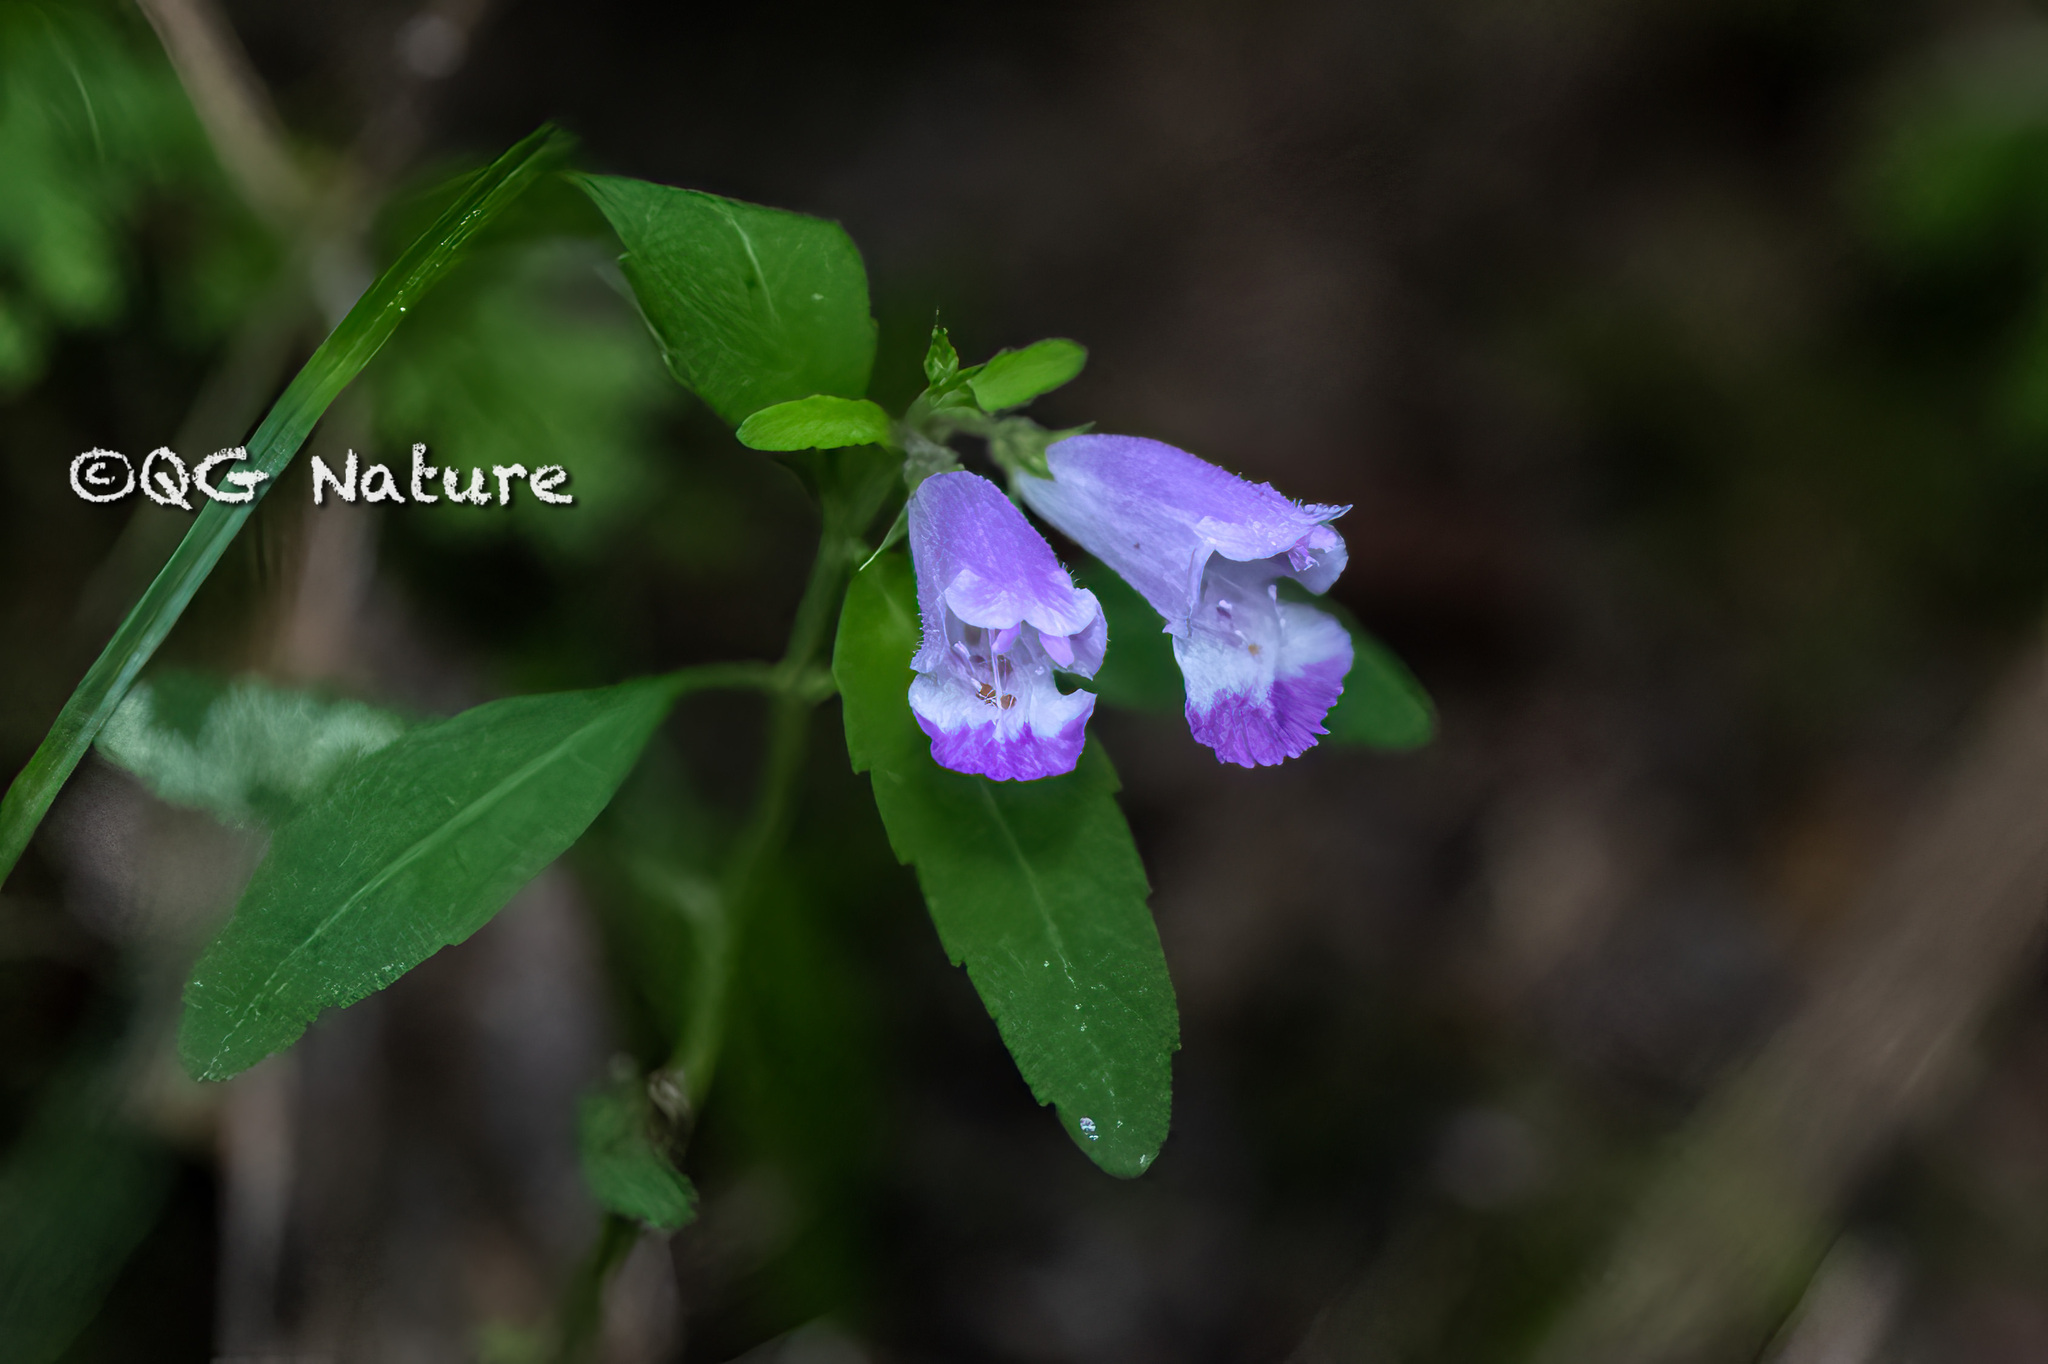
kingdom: Plantae
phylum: Tracheophyta
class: Magnoliopsida
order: Lamiales
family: Lamiaceae
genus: Mosla
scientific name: Mosla soochouensis
